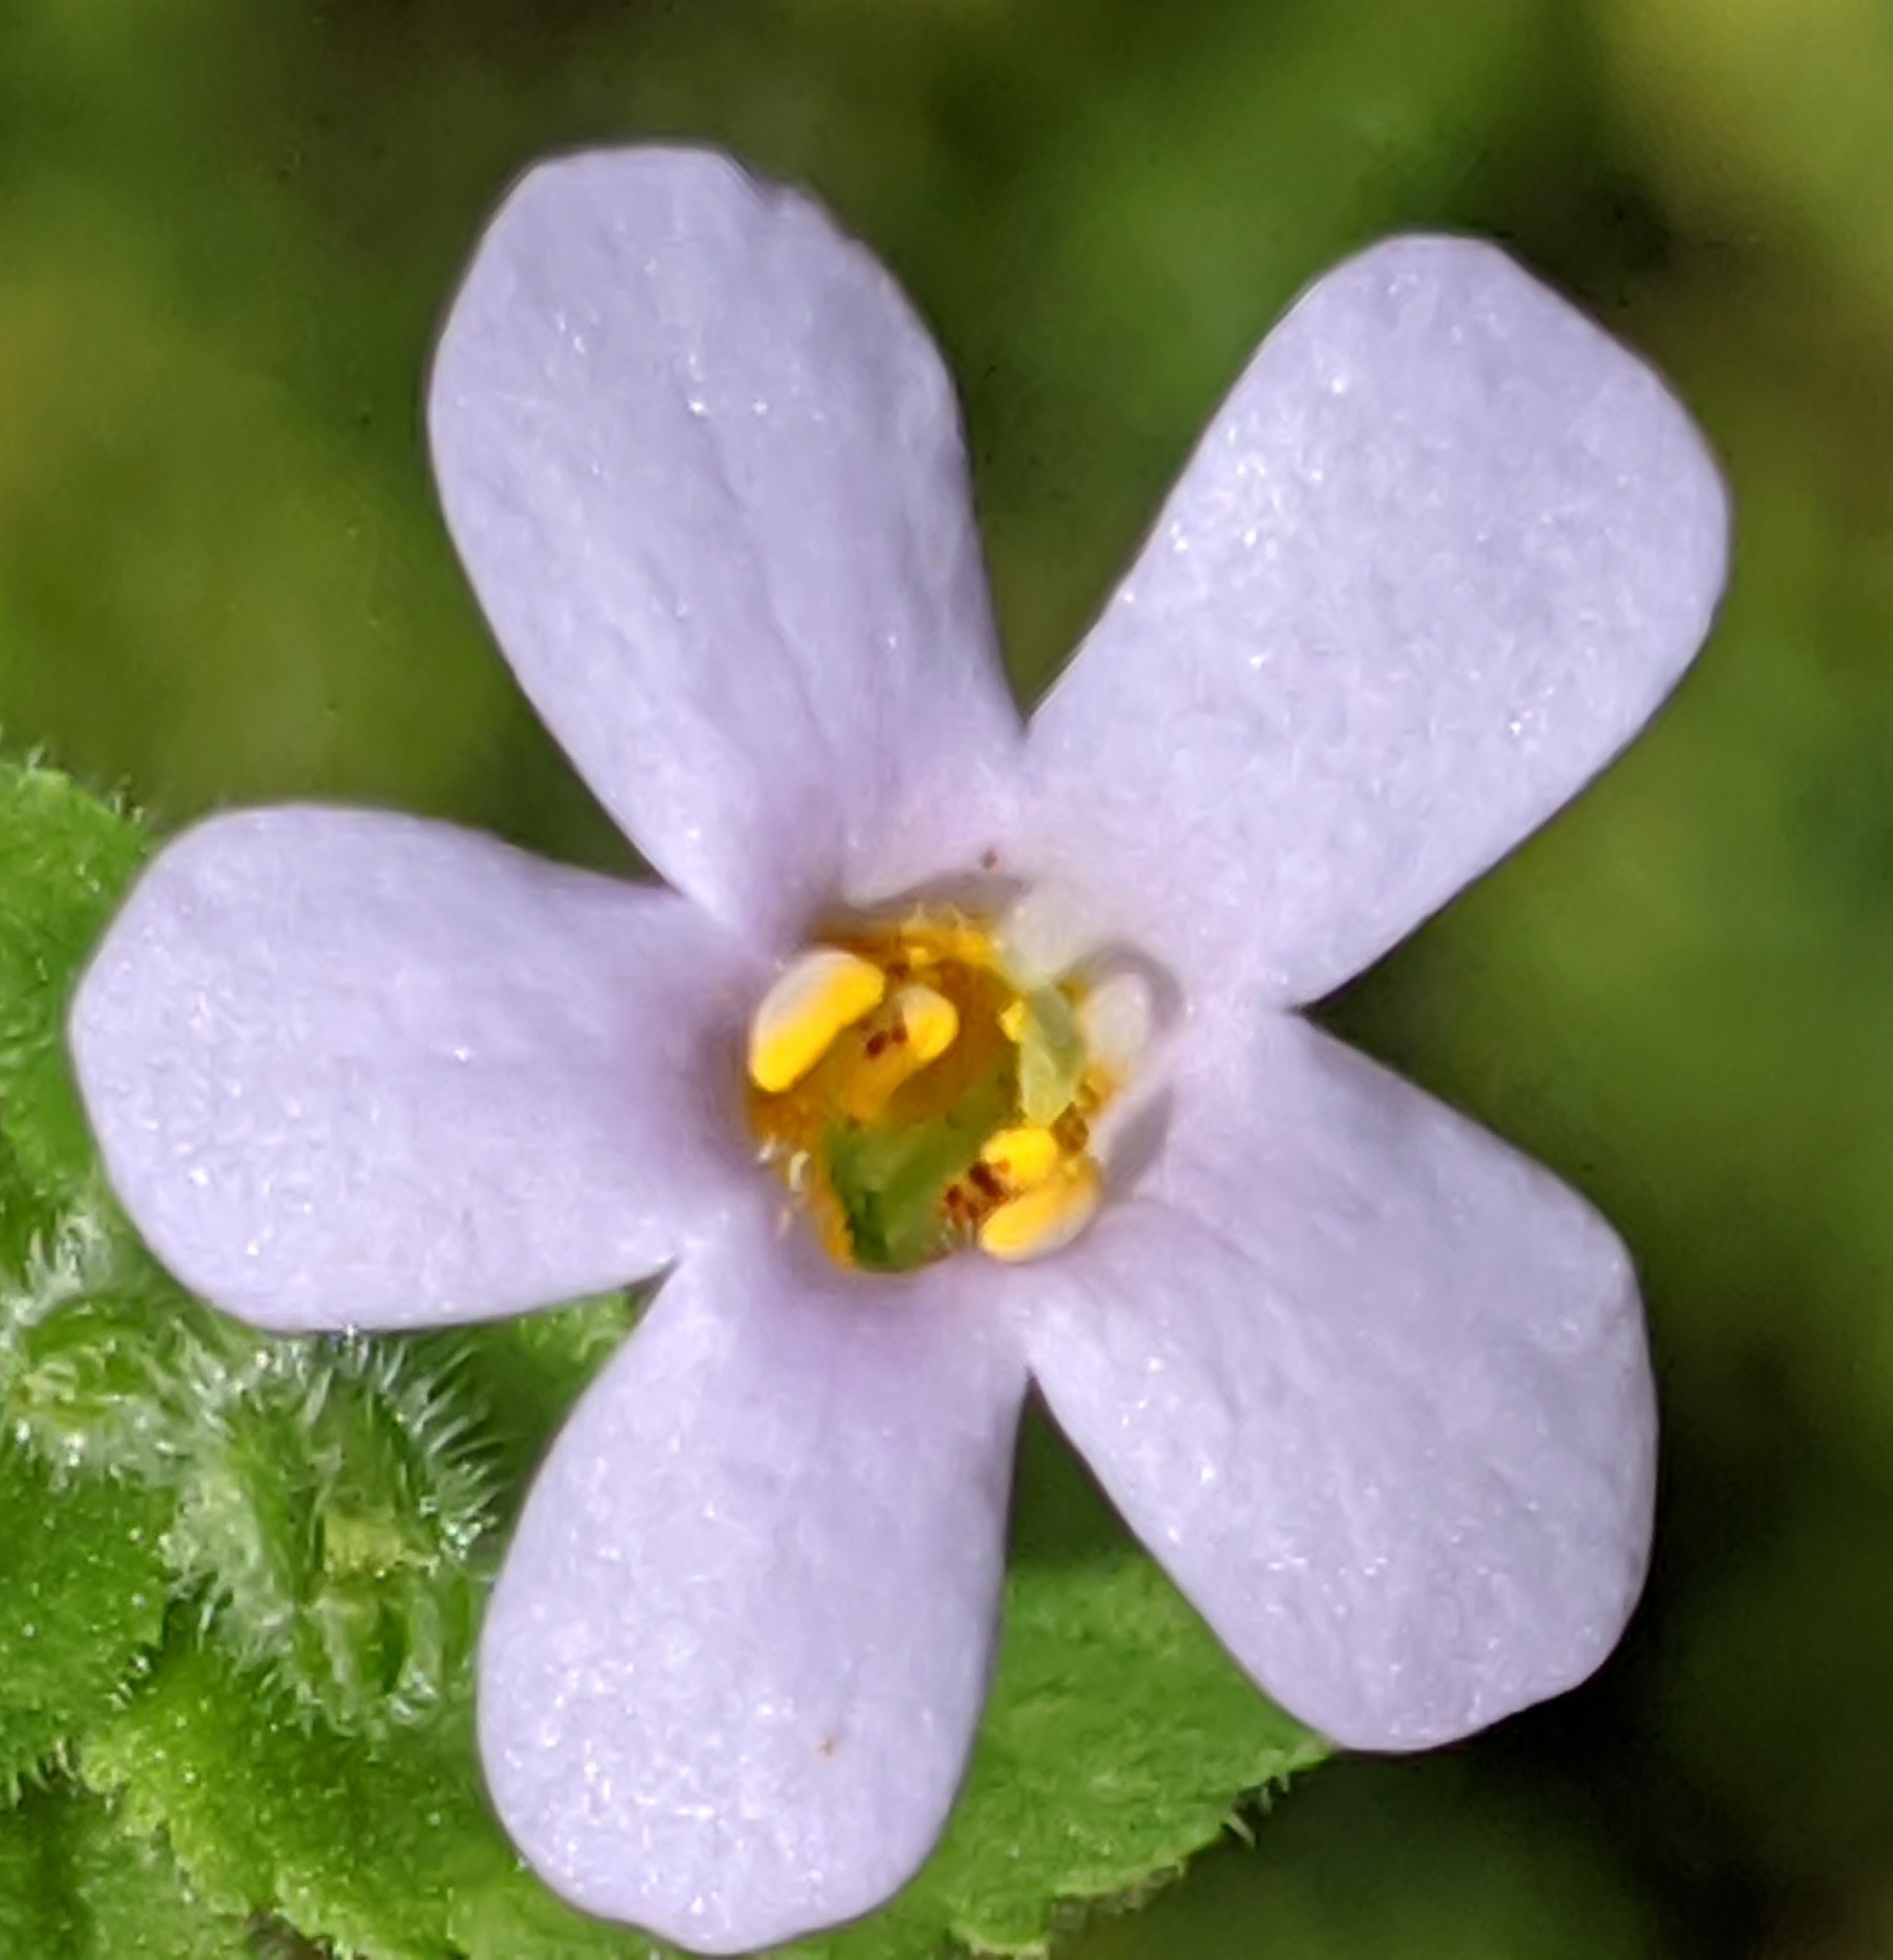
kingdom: Plantae
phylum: Tracheophyta
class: Magnoliopsida
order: Lamiales
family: Scrophulariaceae
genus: Chaenostoma
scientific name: Chaenostoma campanulatum
